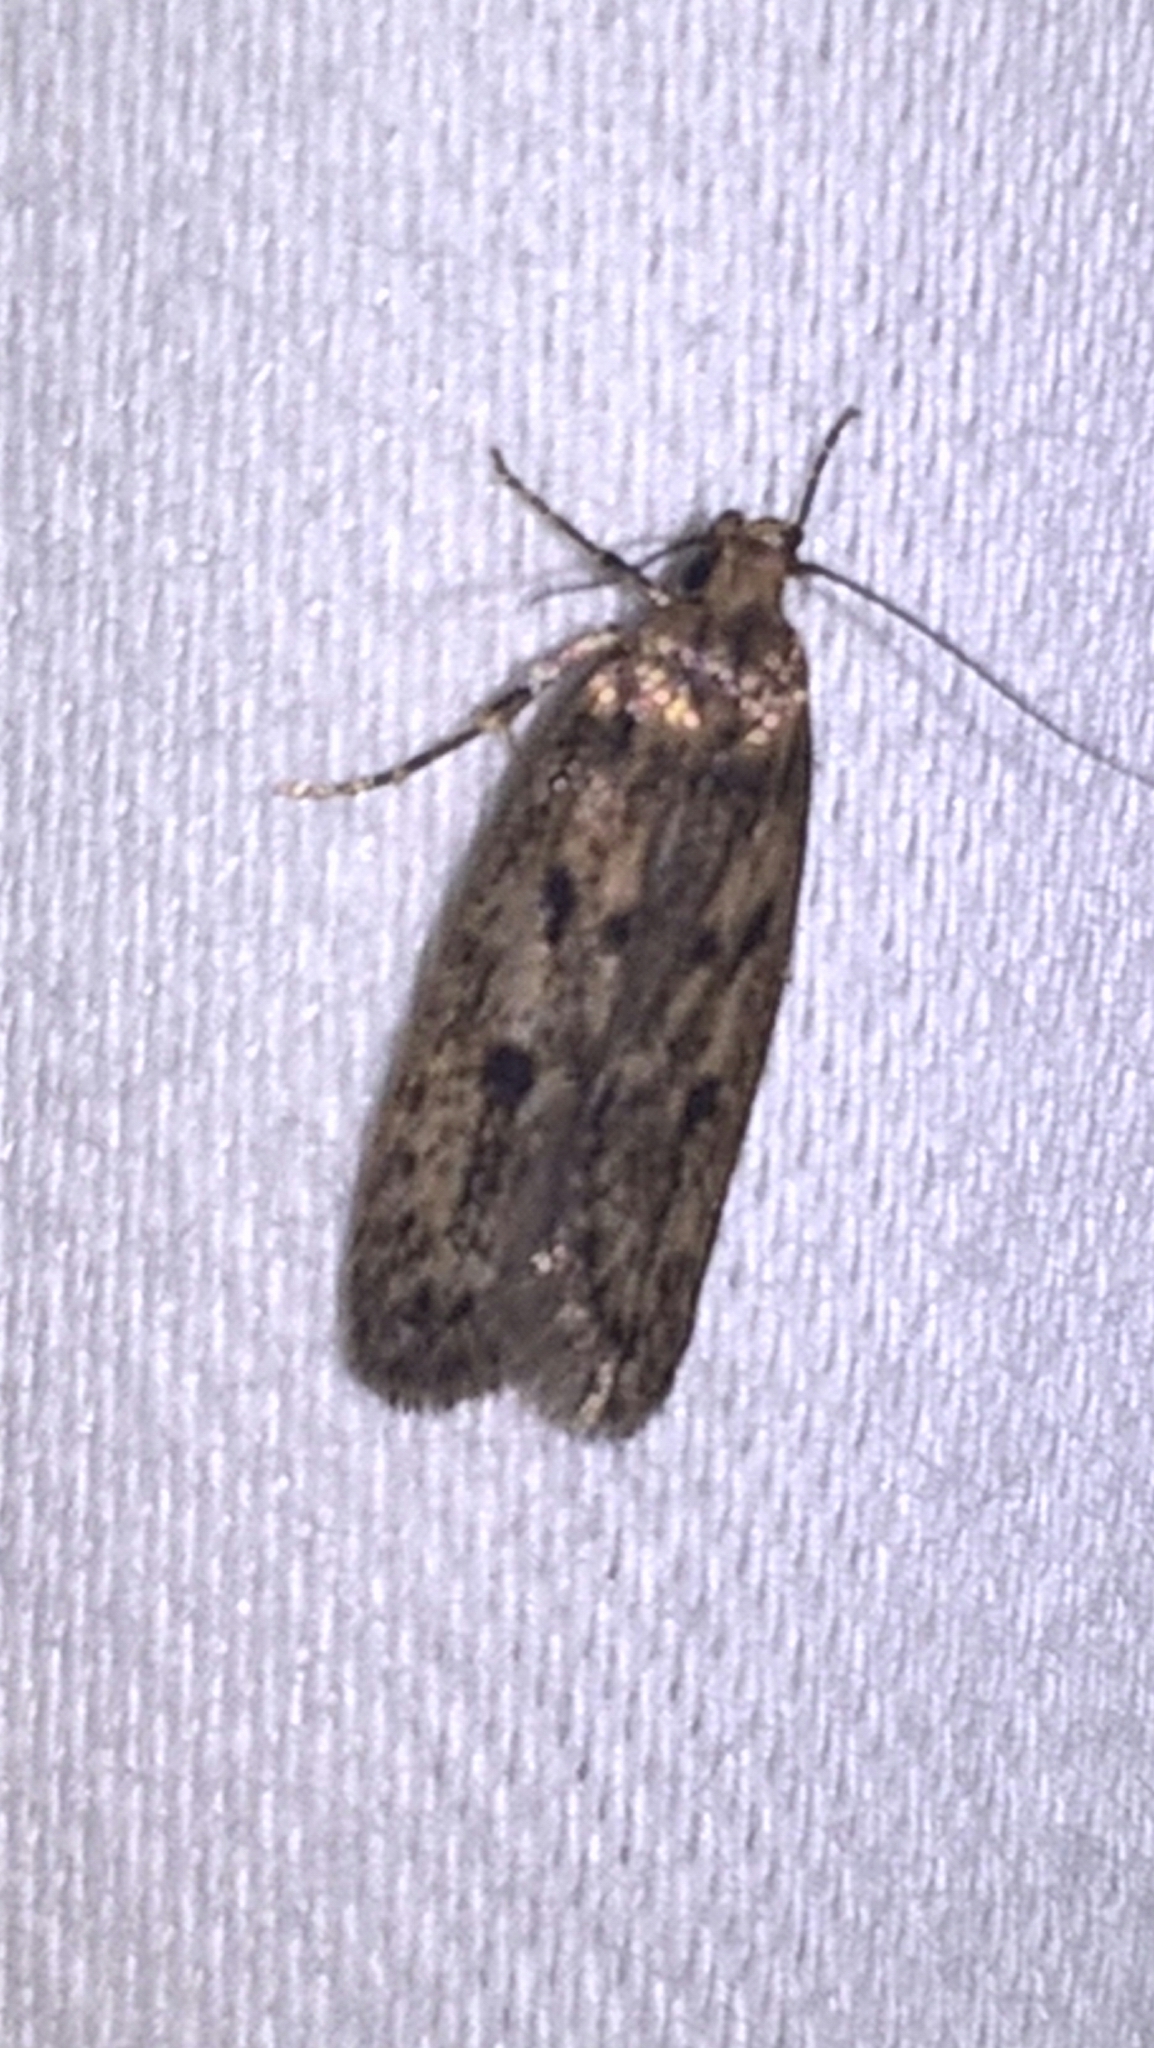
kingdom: Animalia
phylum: Arthropoda
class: Insecta
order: Lepidoptera
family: Oecophoridae
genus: Hofmannophila
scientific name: Hofmannophila pseudospretella
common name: Brown house moth
